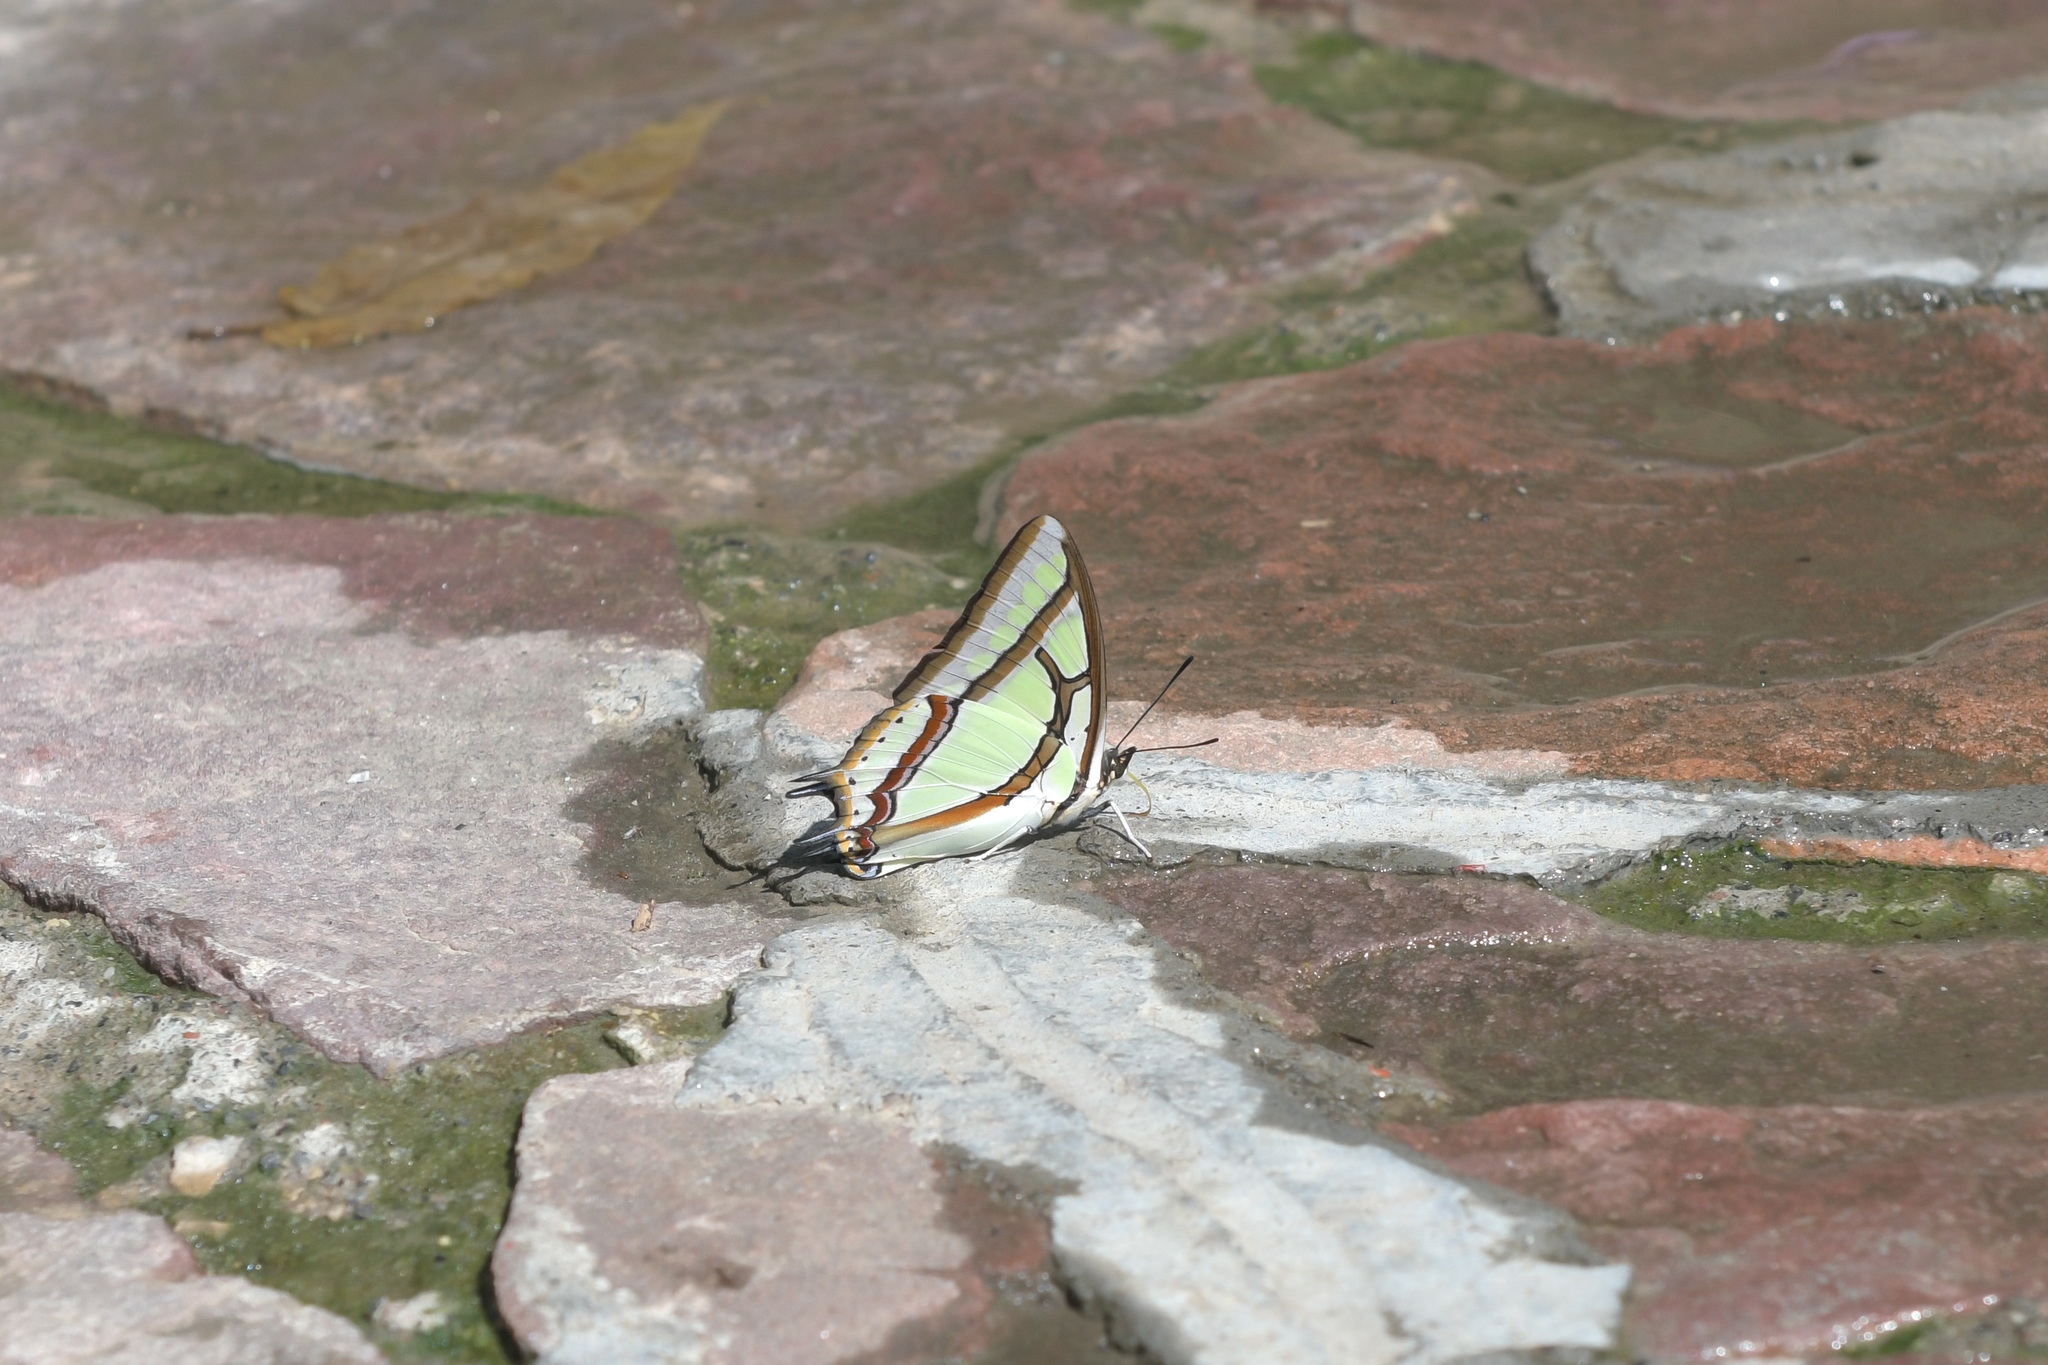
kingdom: Animalia
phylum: Arthropoda
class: Insecta
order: Lepidoptera
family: Nymphalidae
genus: Polyura
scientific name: Polyura narcaeus
